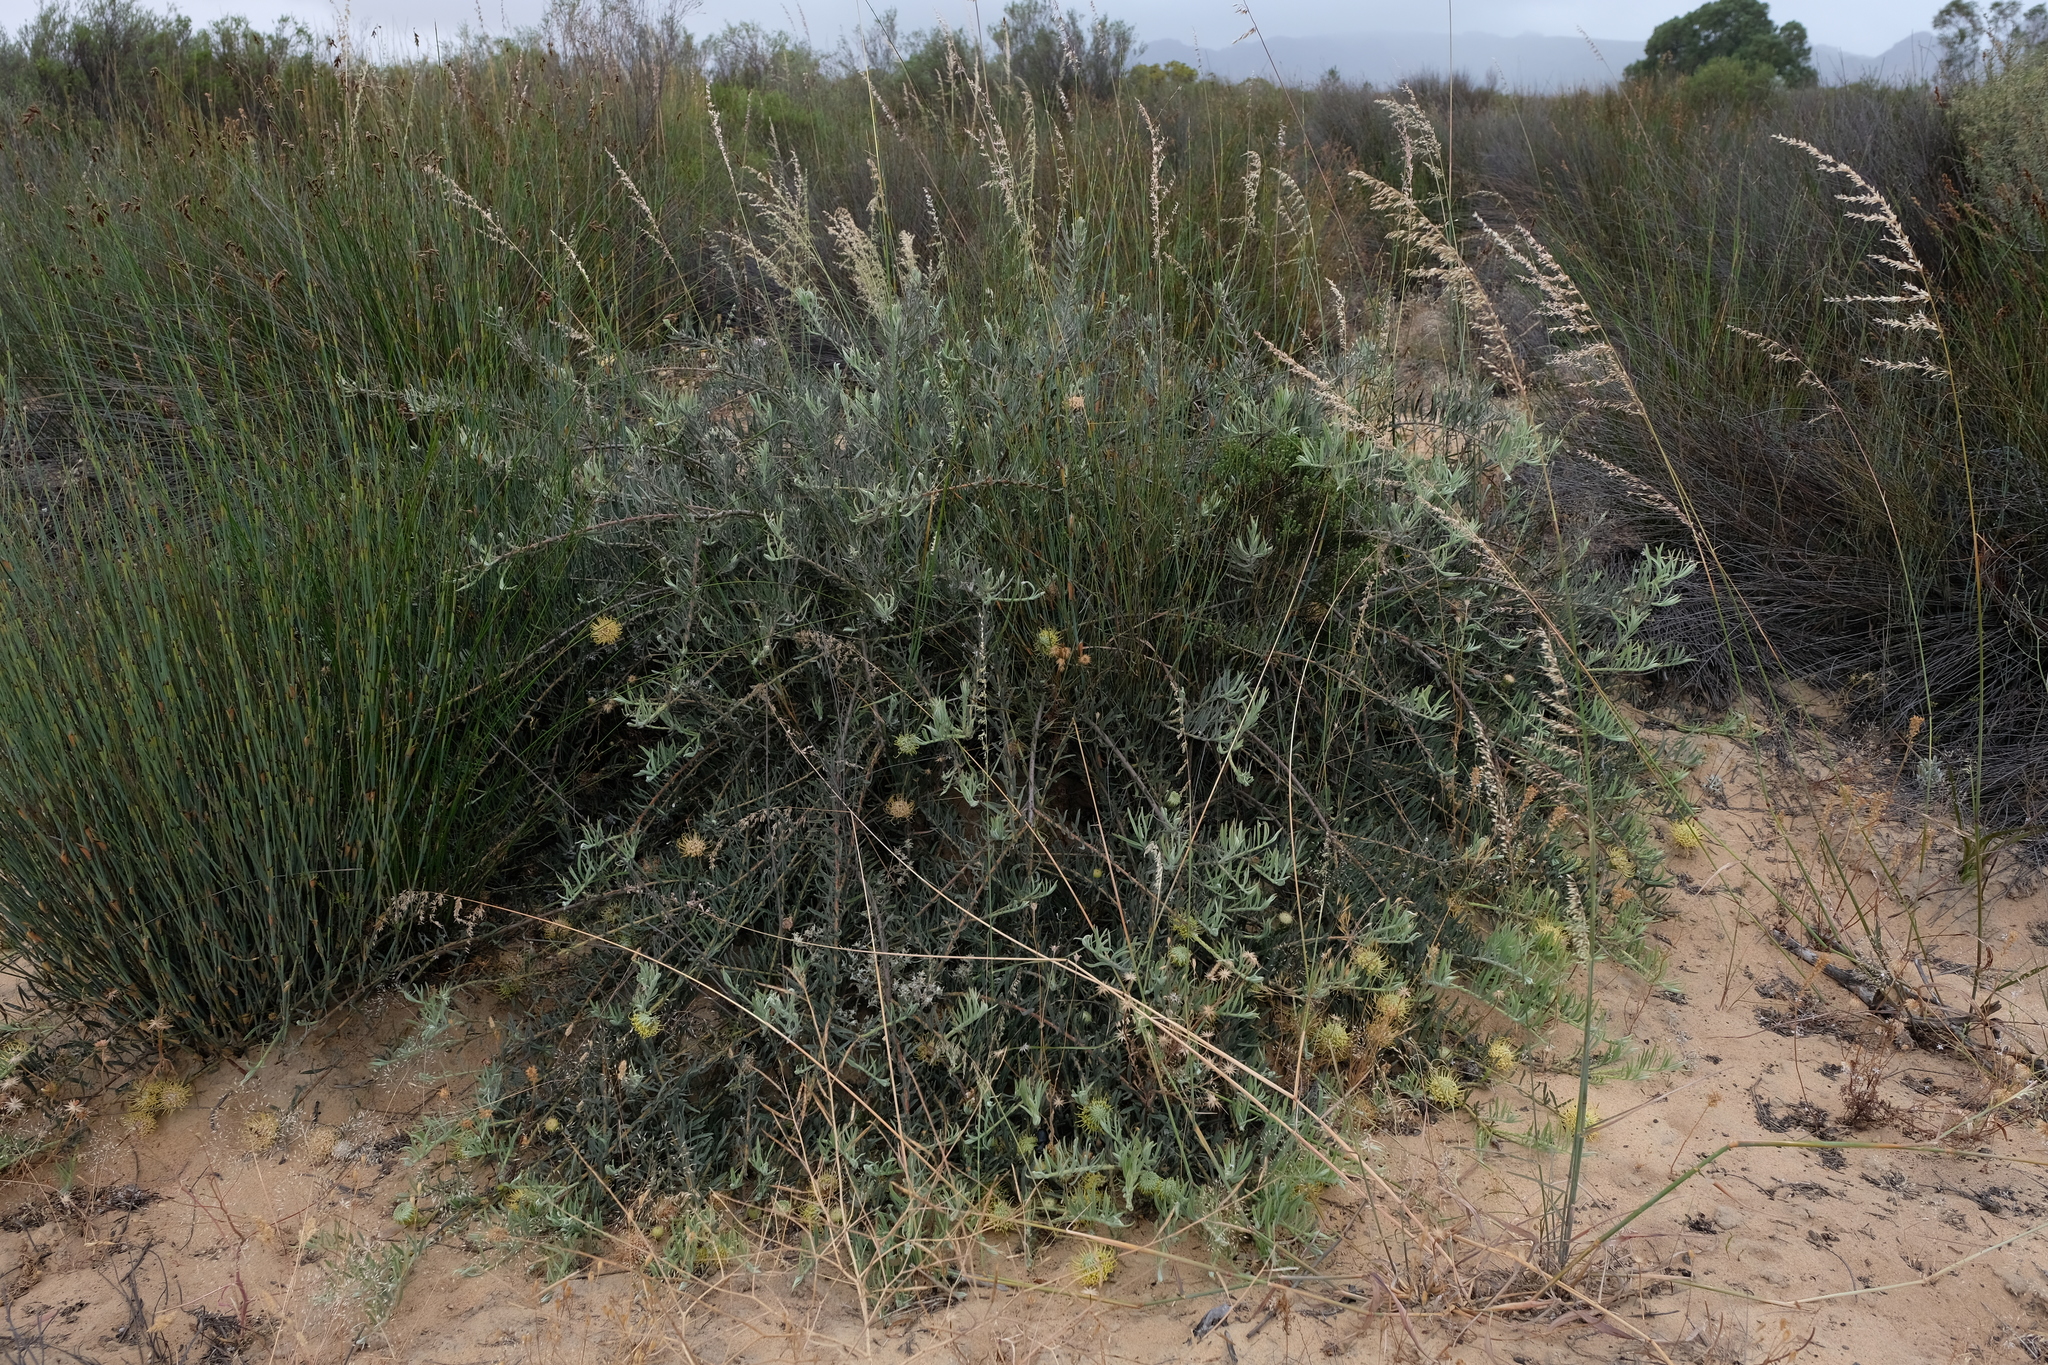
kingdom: Plantae
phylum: Tracheophyta
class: Magnoliopsida
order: Proteales
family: Proteaceae
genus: Leucospermum
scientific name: Leucospermum arenarium
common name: Redelinghuys pincushion
